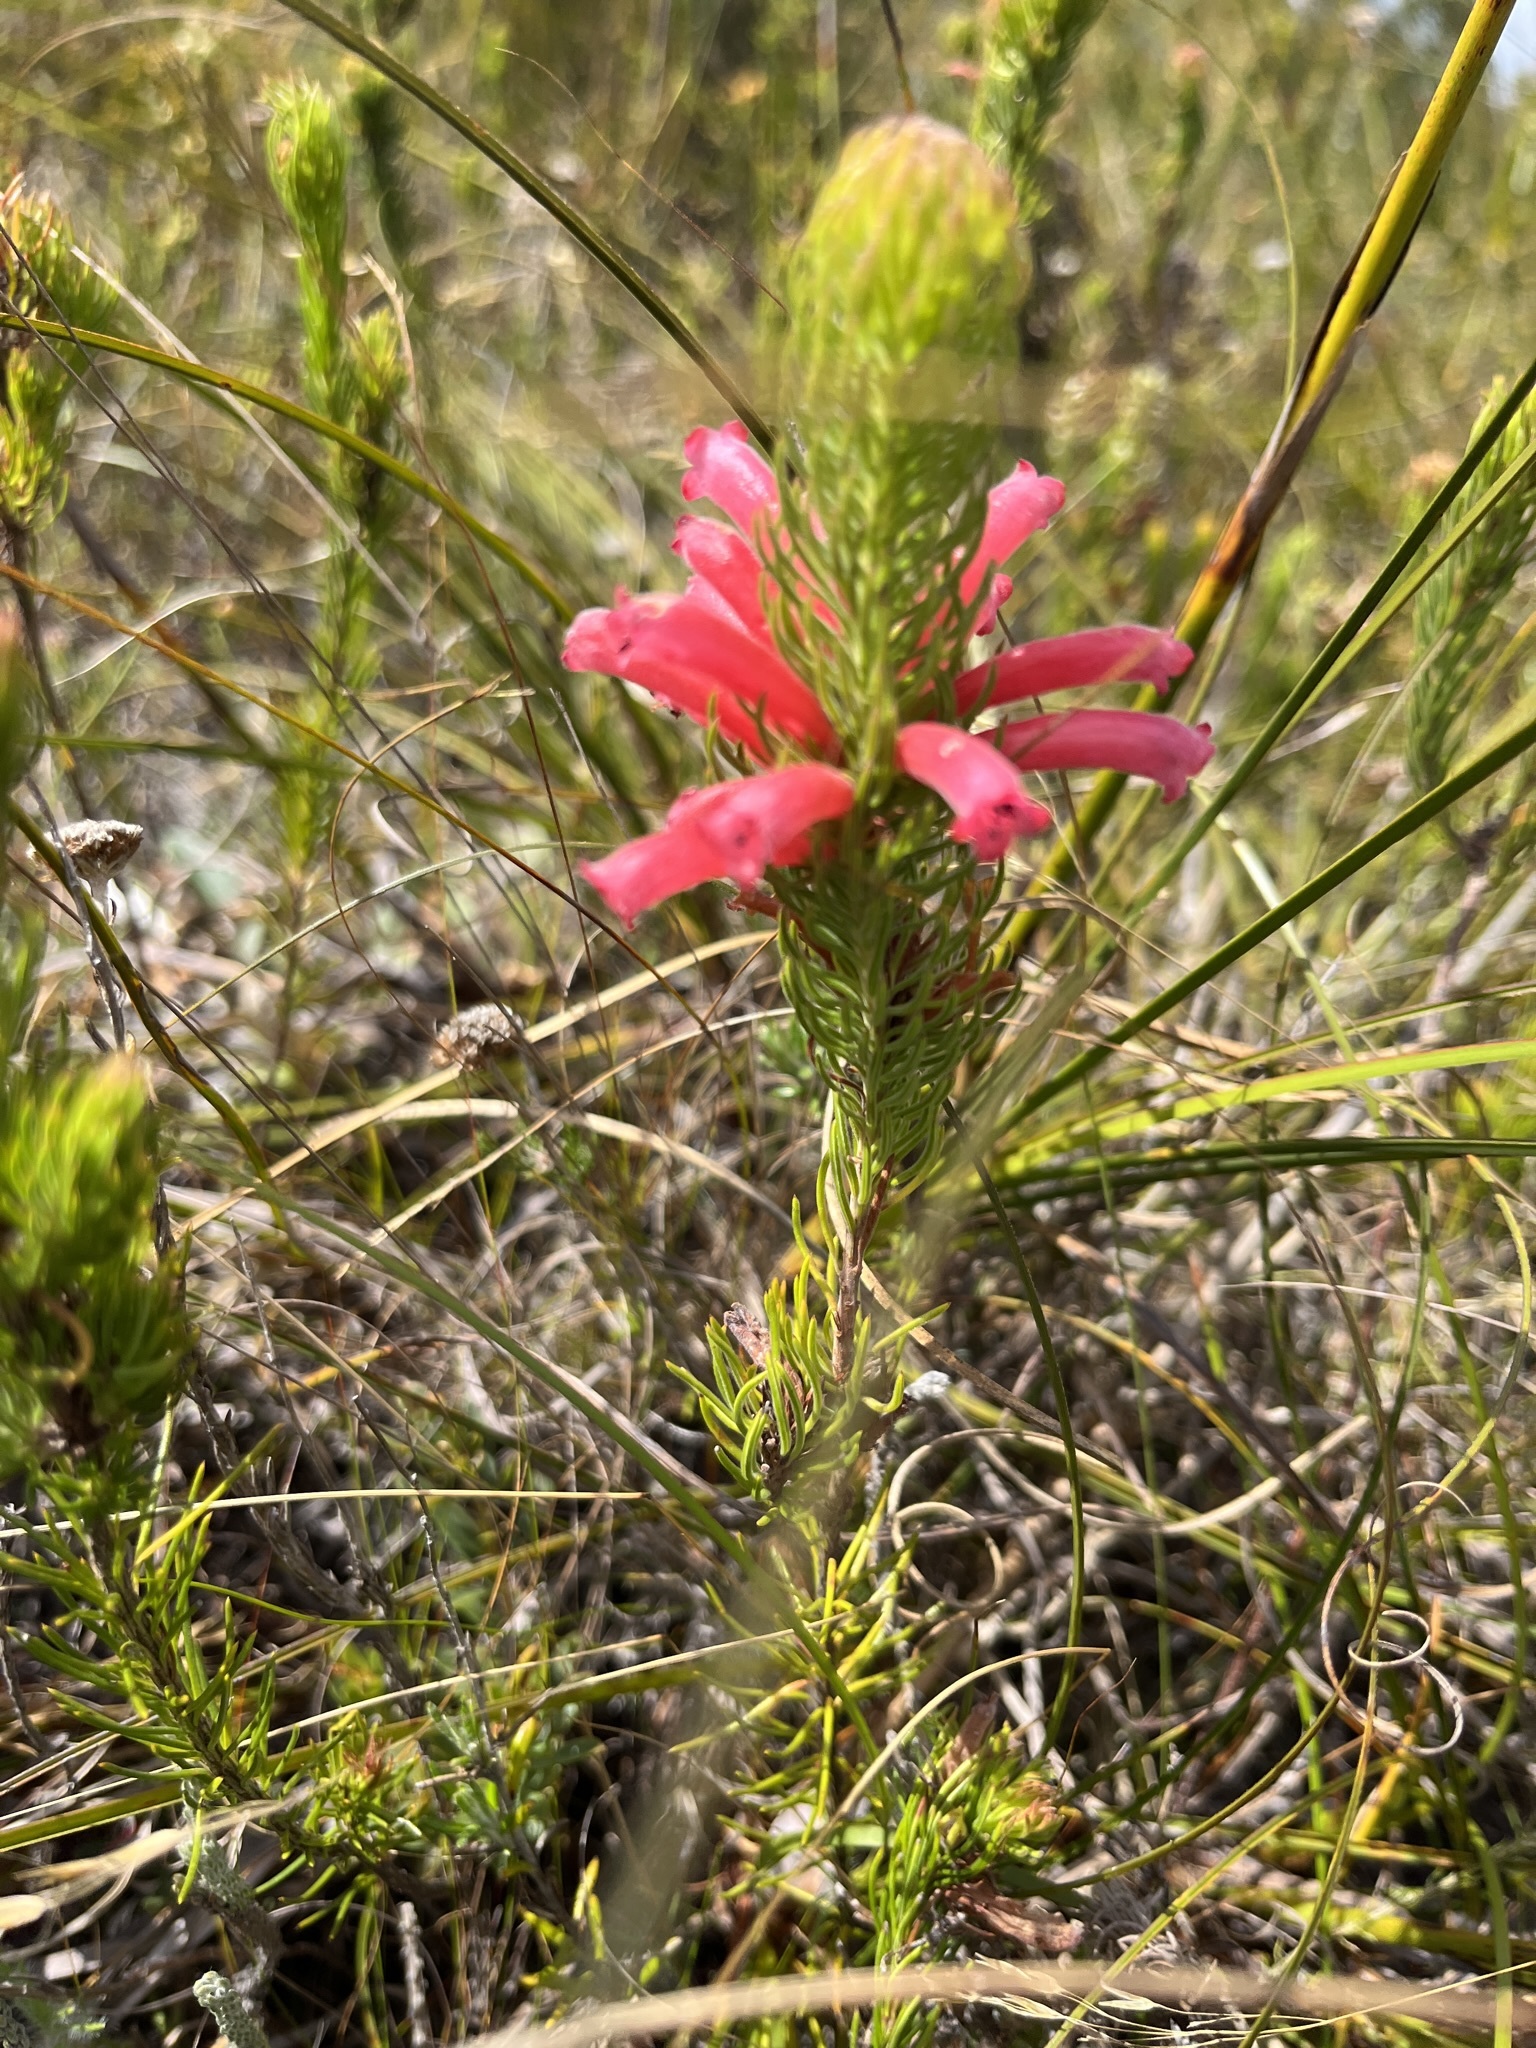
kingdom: Plantae
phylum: Tracheophyta
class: Magnoliopsida
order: Ericales
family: Ericaceae
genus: Erica
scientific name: Erica vestita
